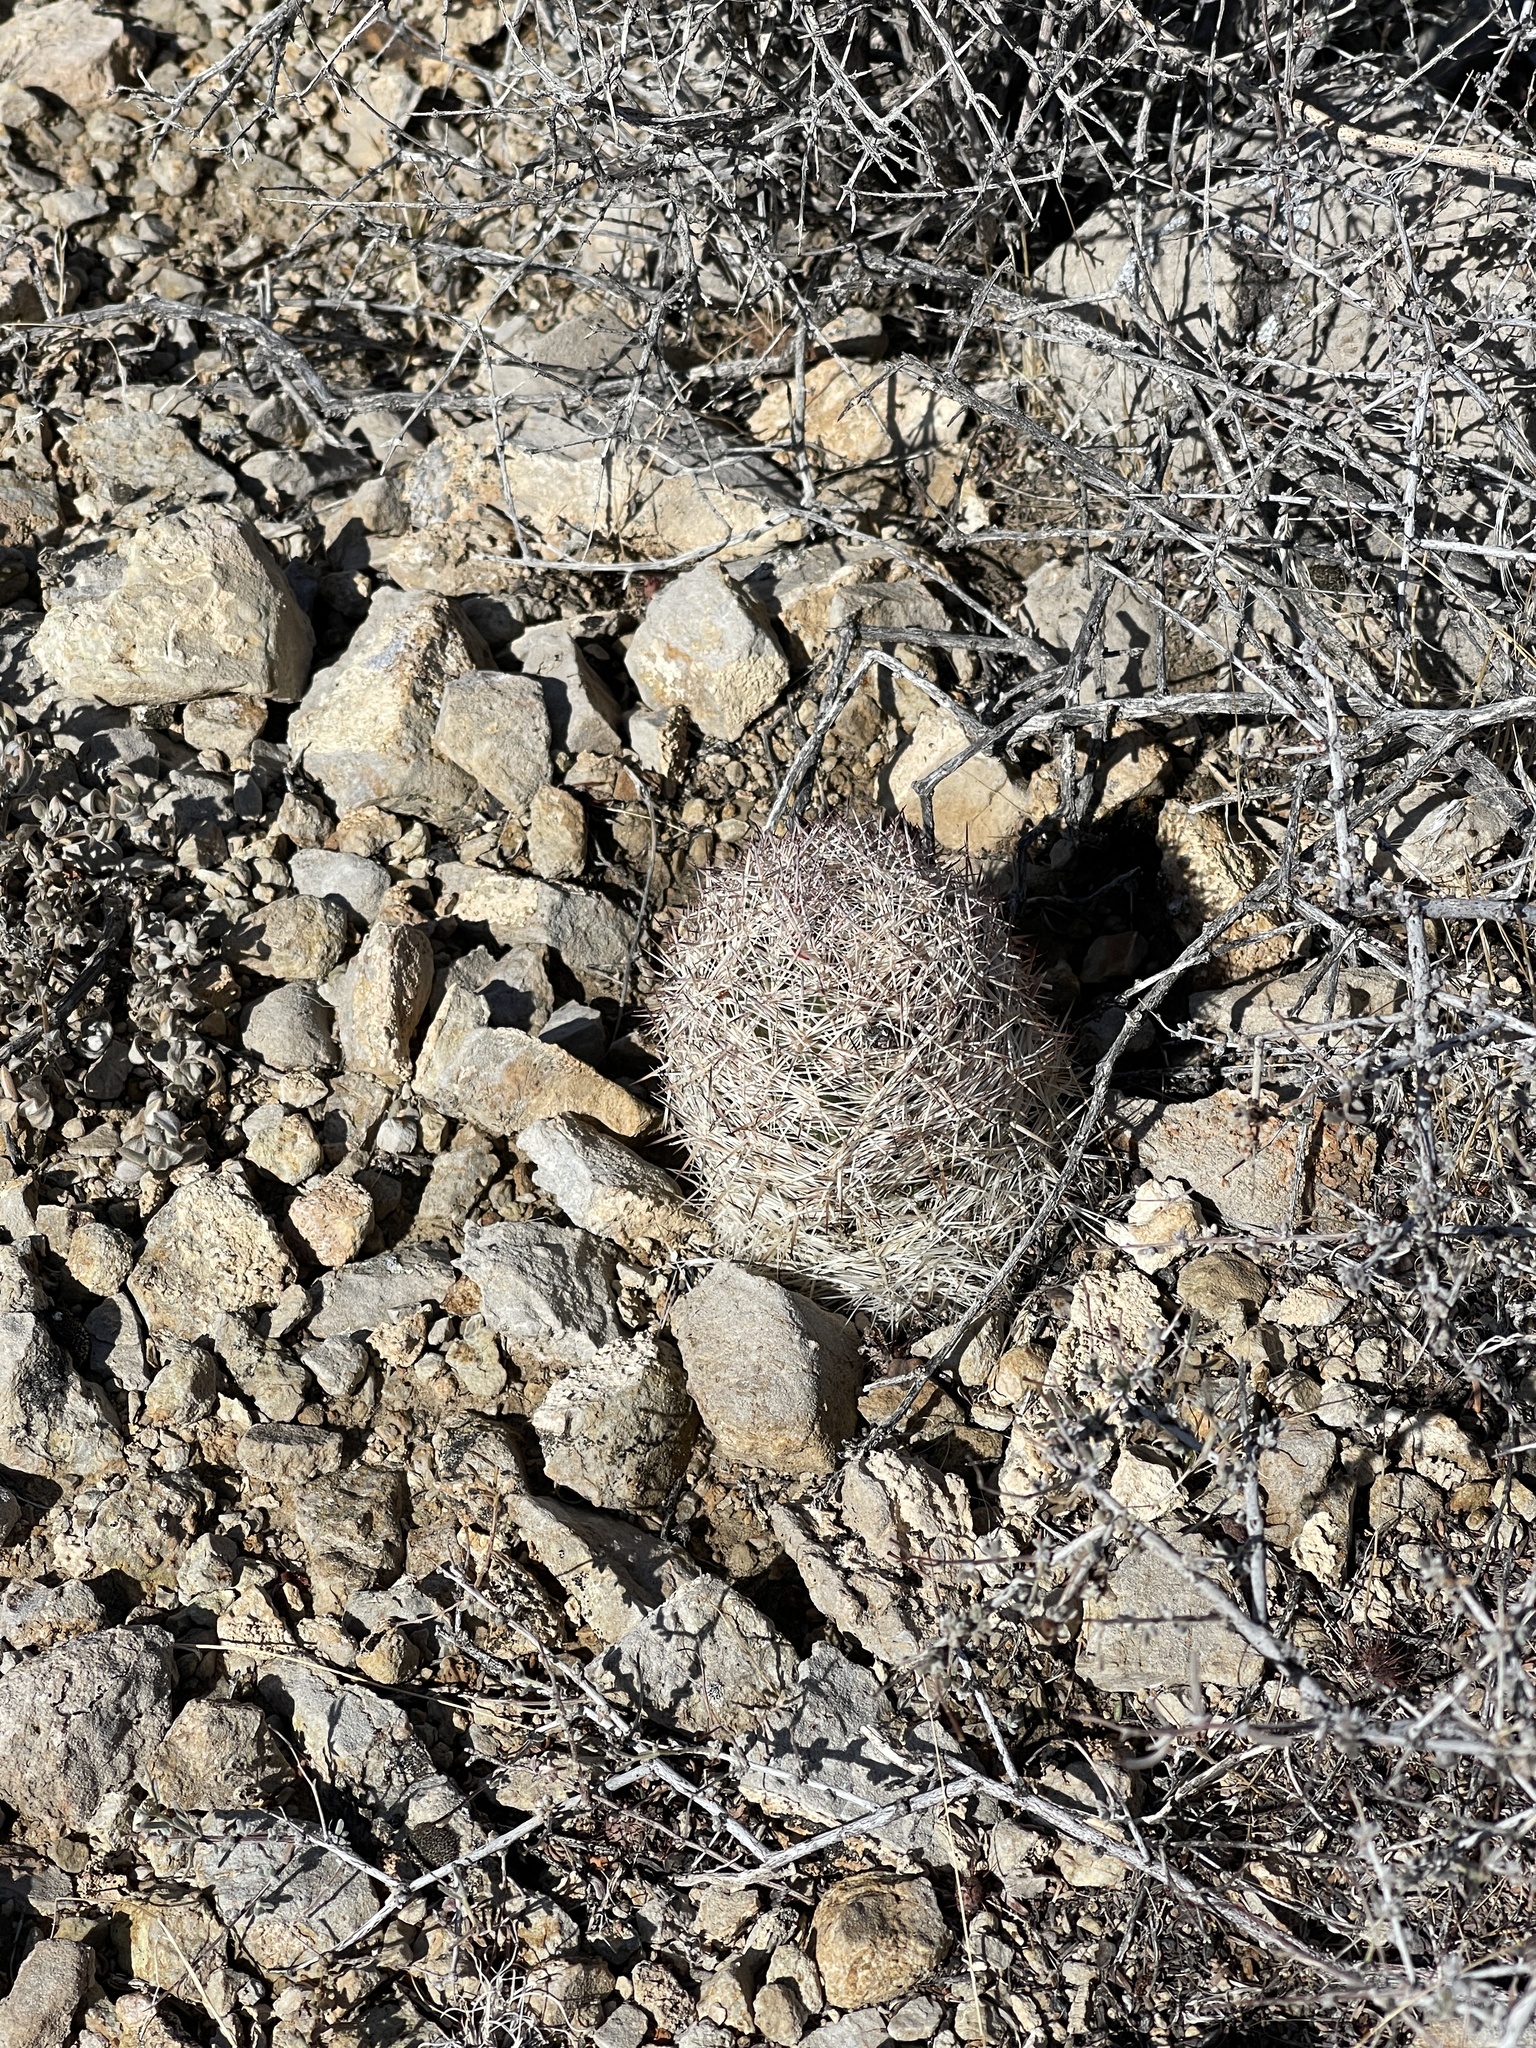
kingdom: Plantae
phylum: Tracheophyta
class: Magnoliopsida
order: Caryophyllales
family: Cactaceae
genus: Pelecyphora
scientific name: Pelecyphora dasyacantha
